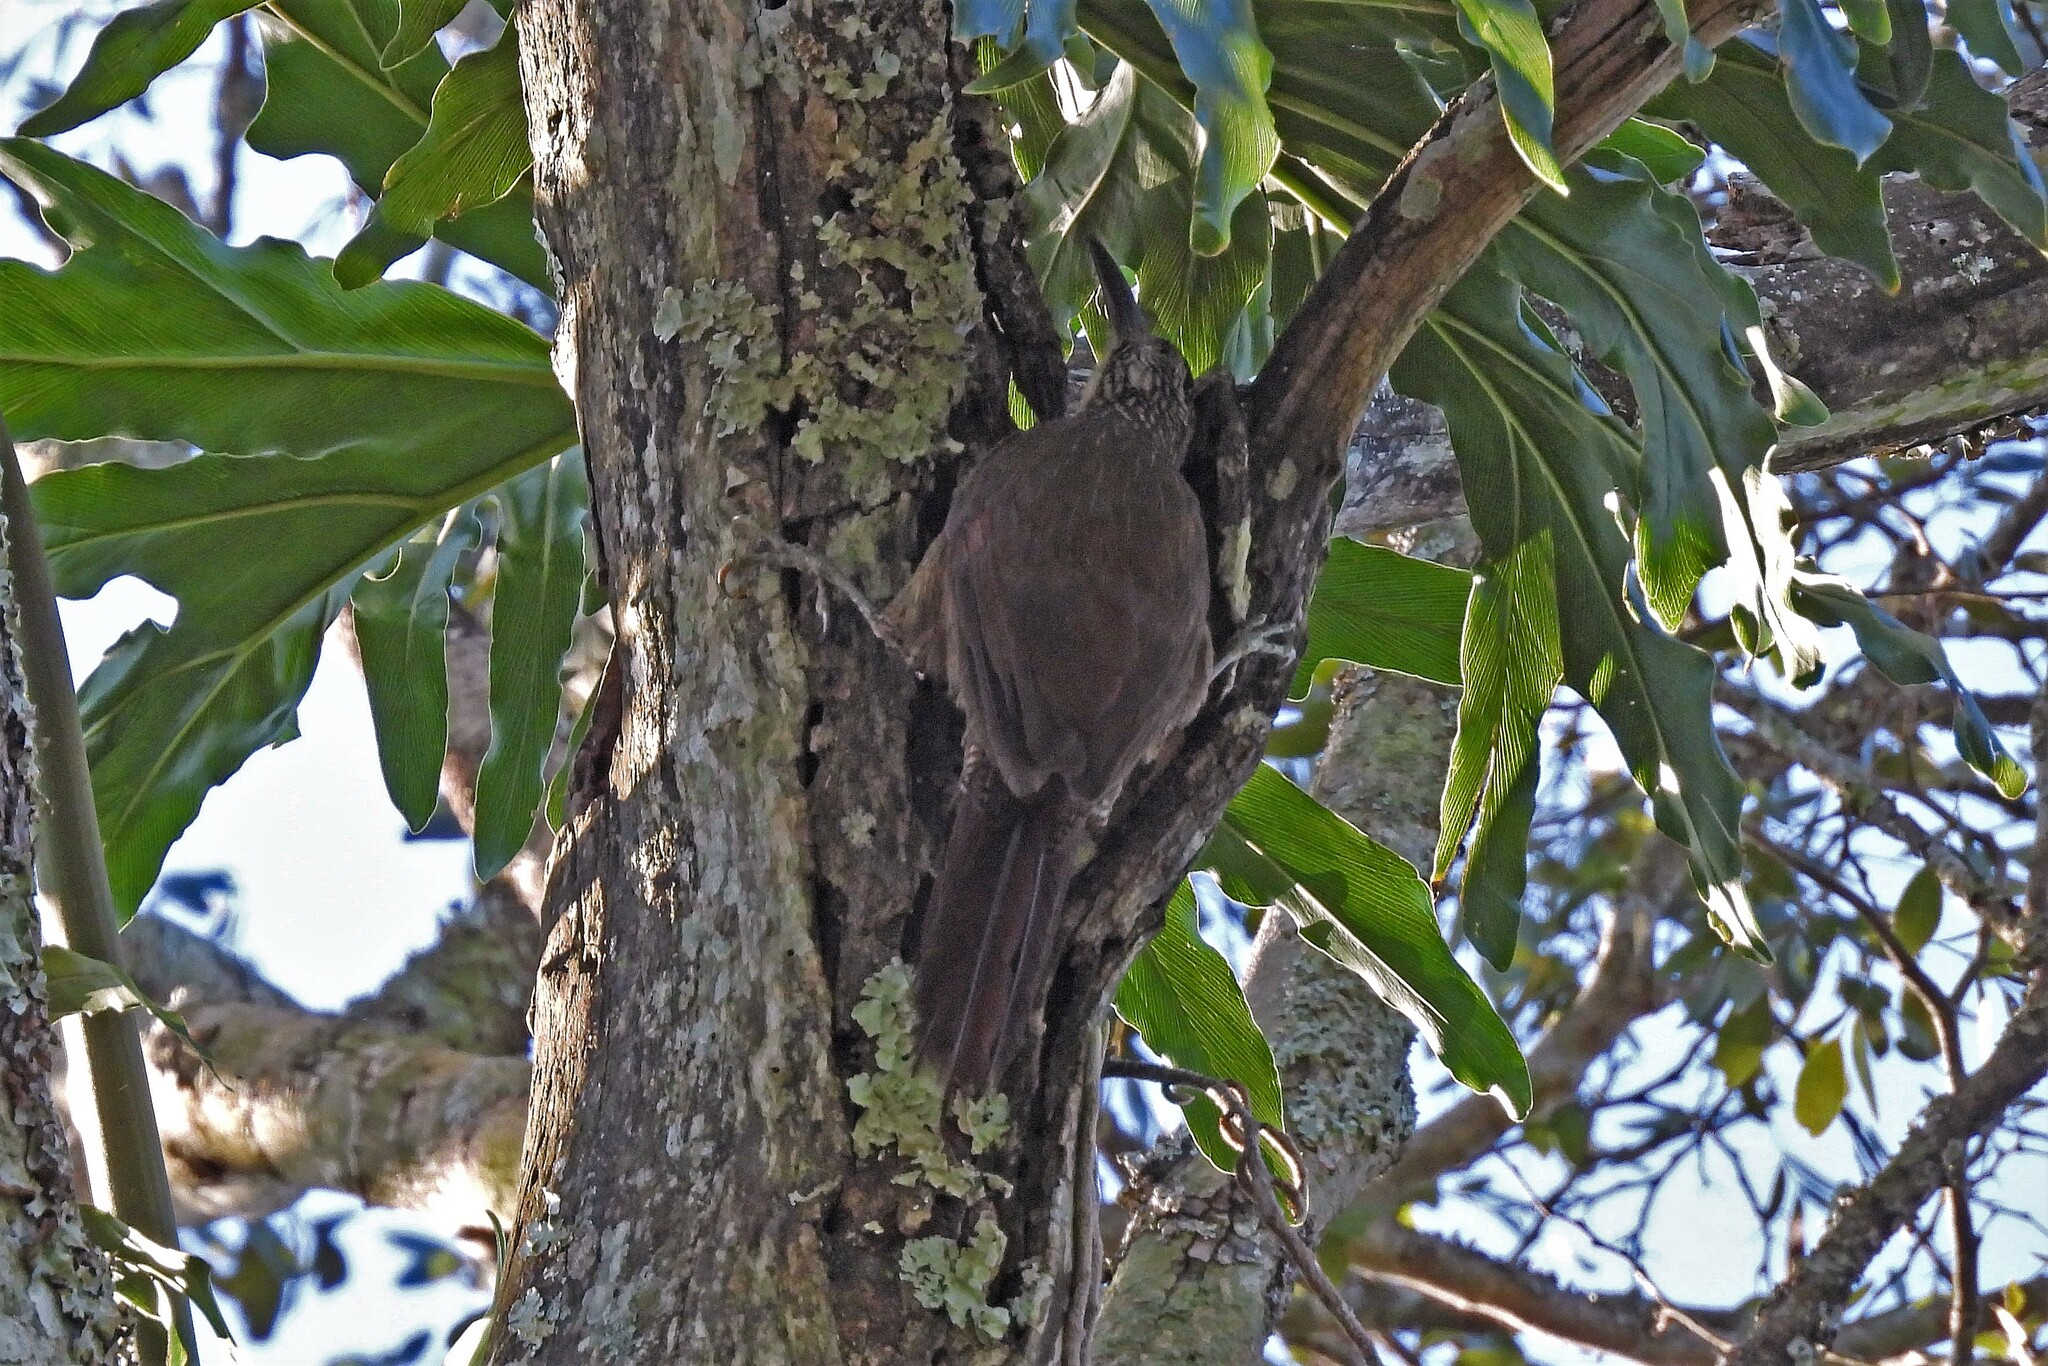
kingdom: Animalia
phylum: Chordata
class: Aves
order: Passeriformes
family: Furnariidae
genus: Xiphocolaptes
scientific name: Xiphocolaptes albicollis
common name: White-throated woodcreeper
